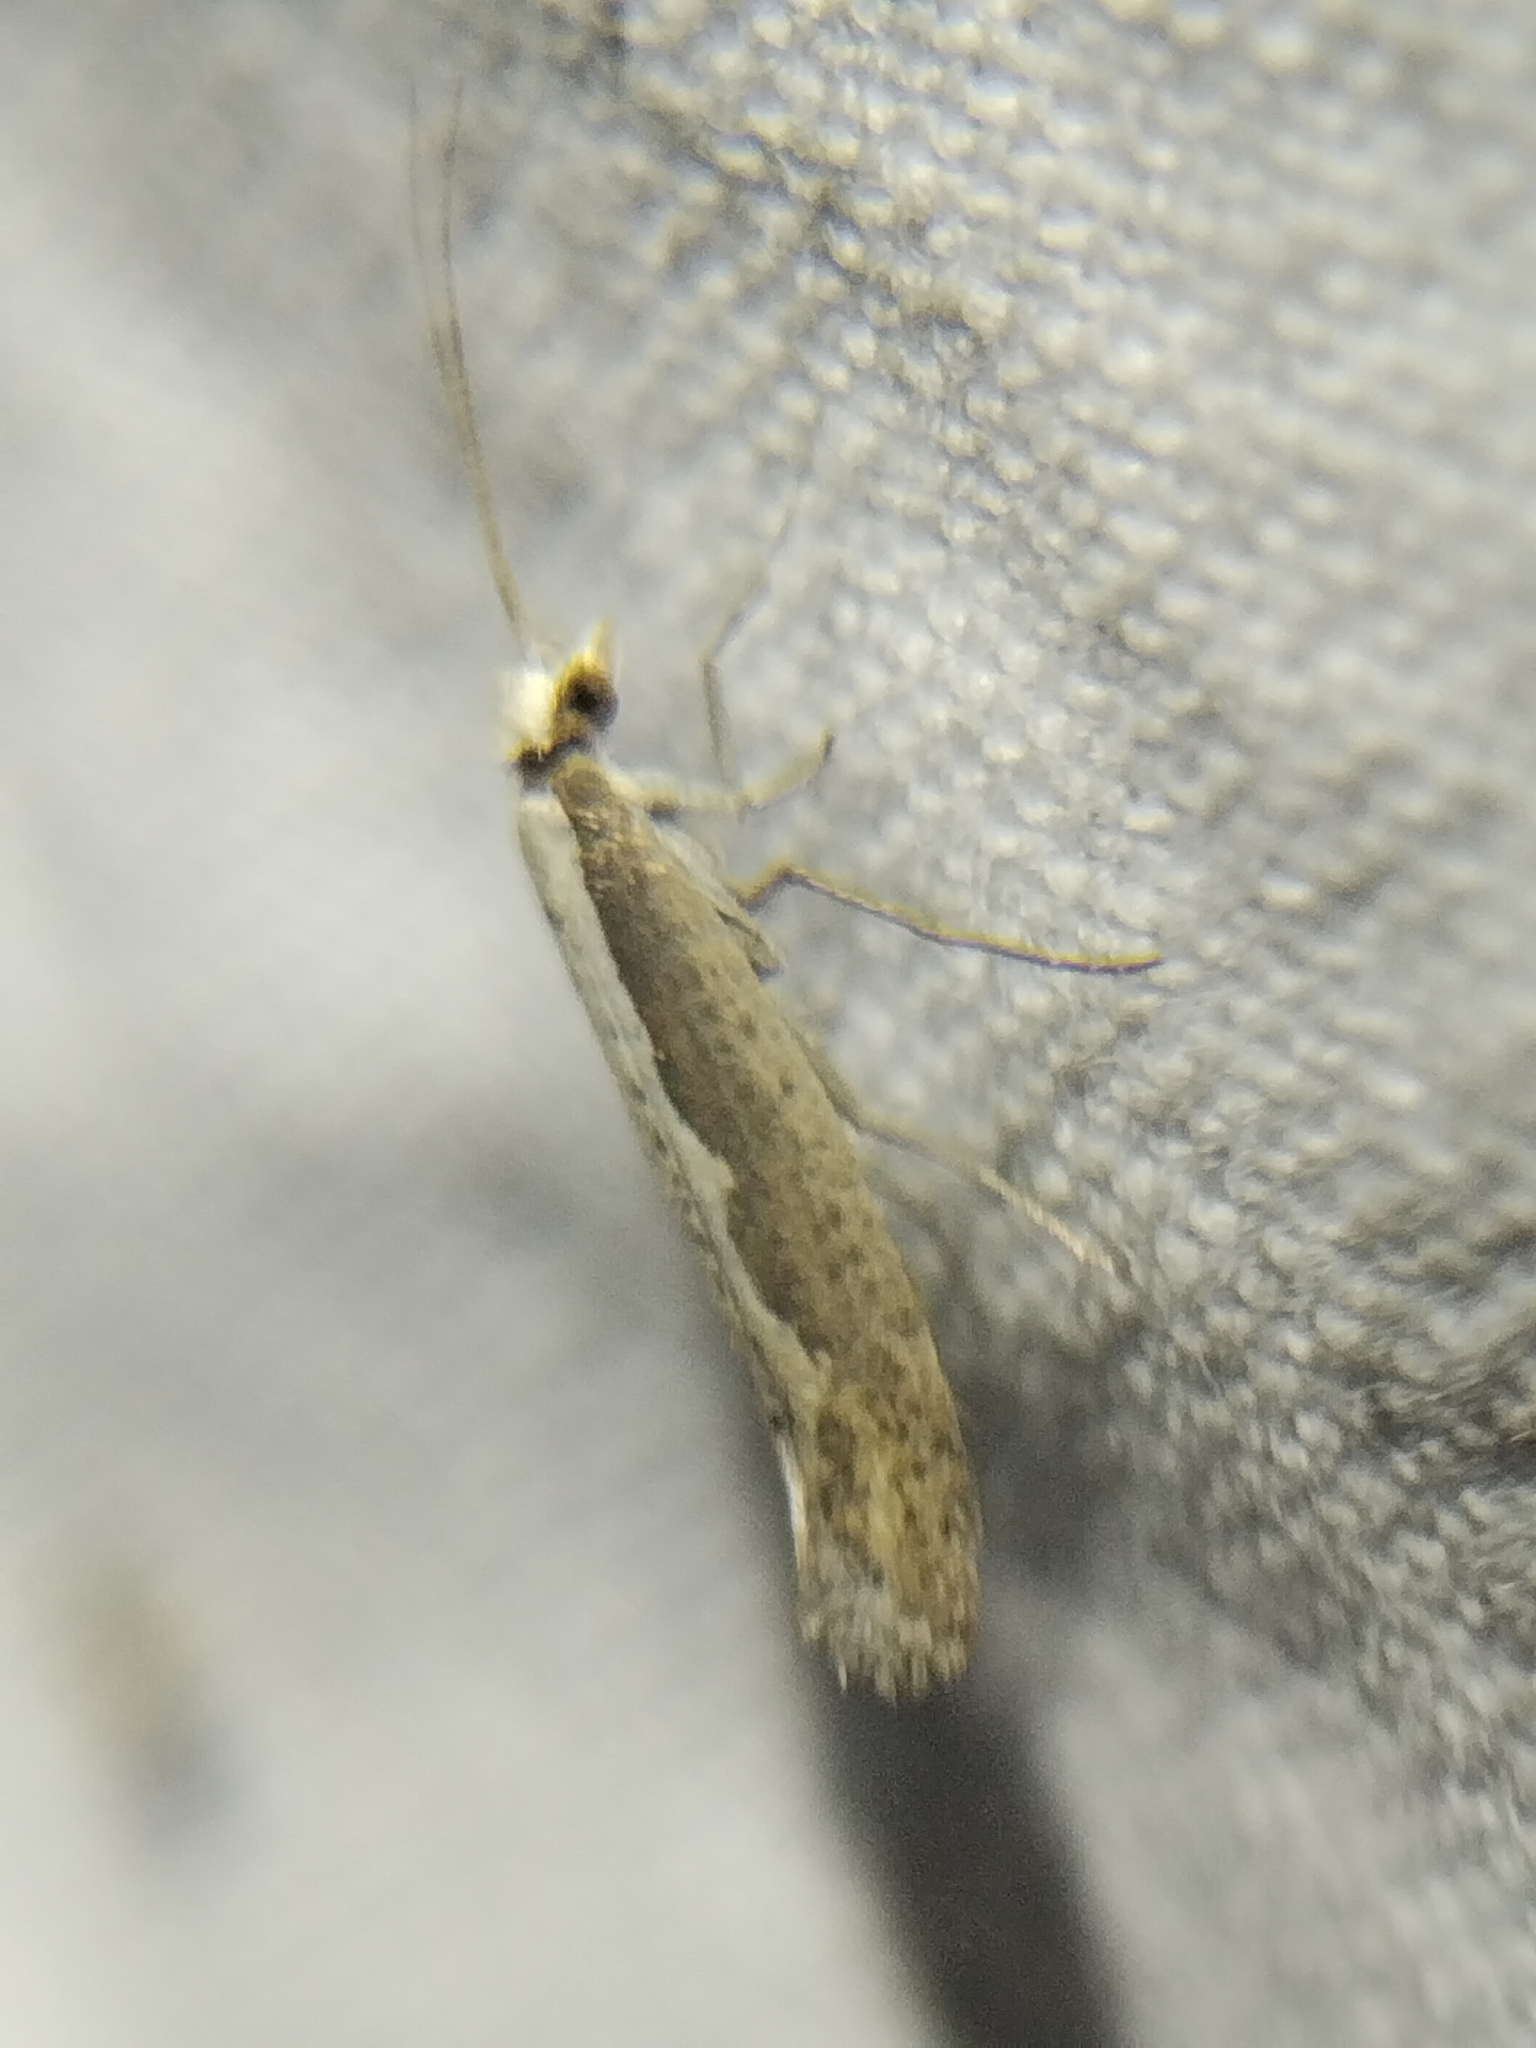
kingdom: Animalia
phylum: Arthropoda
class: Insecta
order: Lepidoptera
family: Plutellidae
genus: Plutella
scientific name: Plutella xylostella
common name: Diamond-back moth
